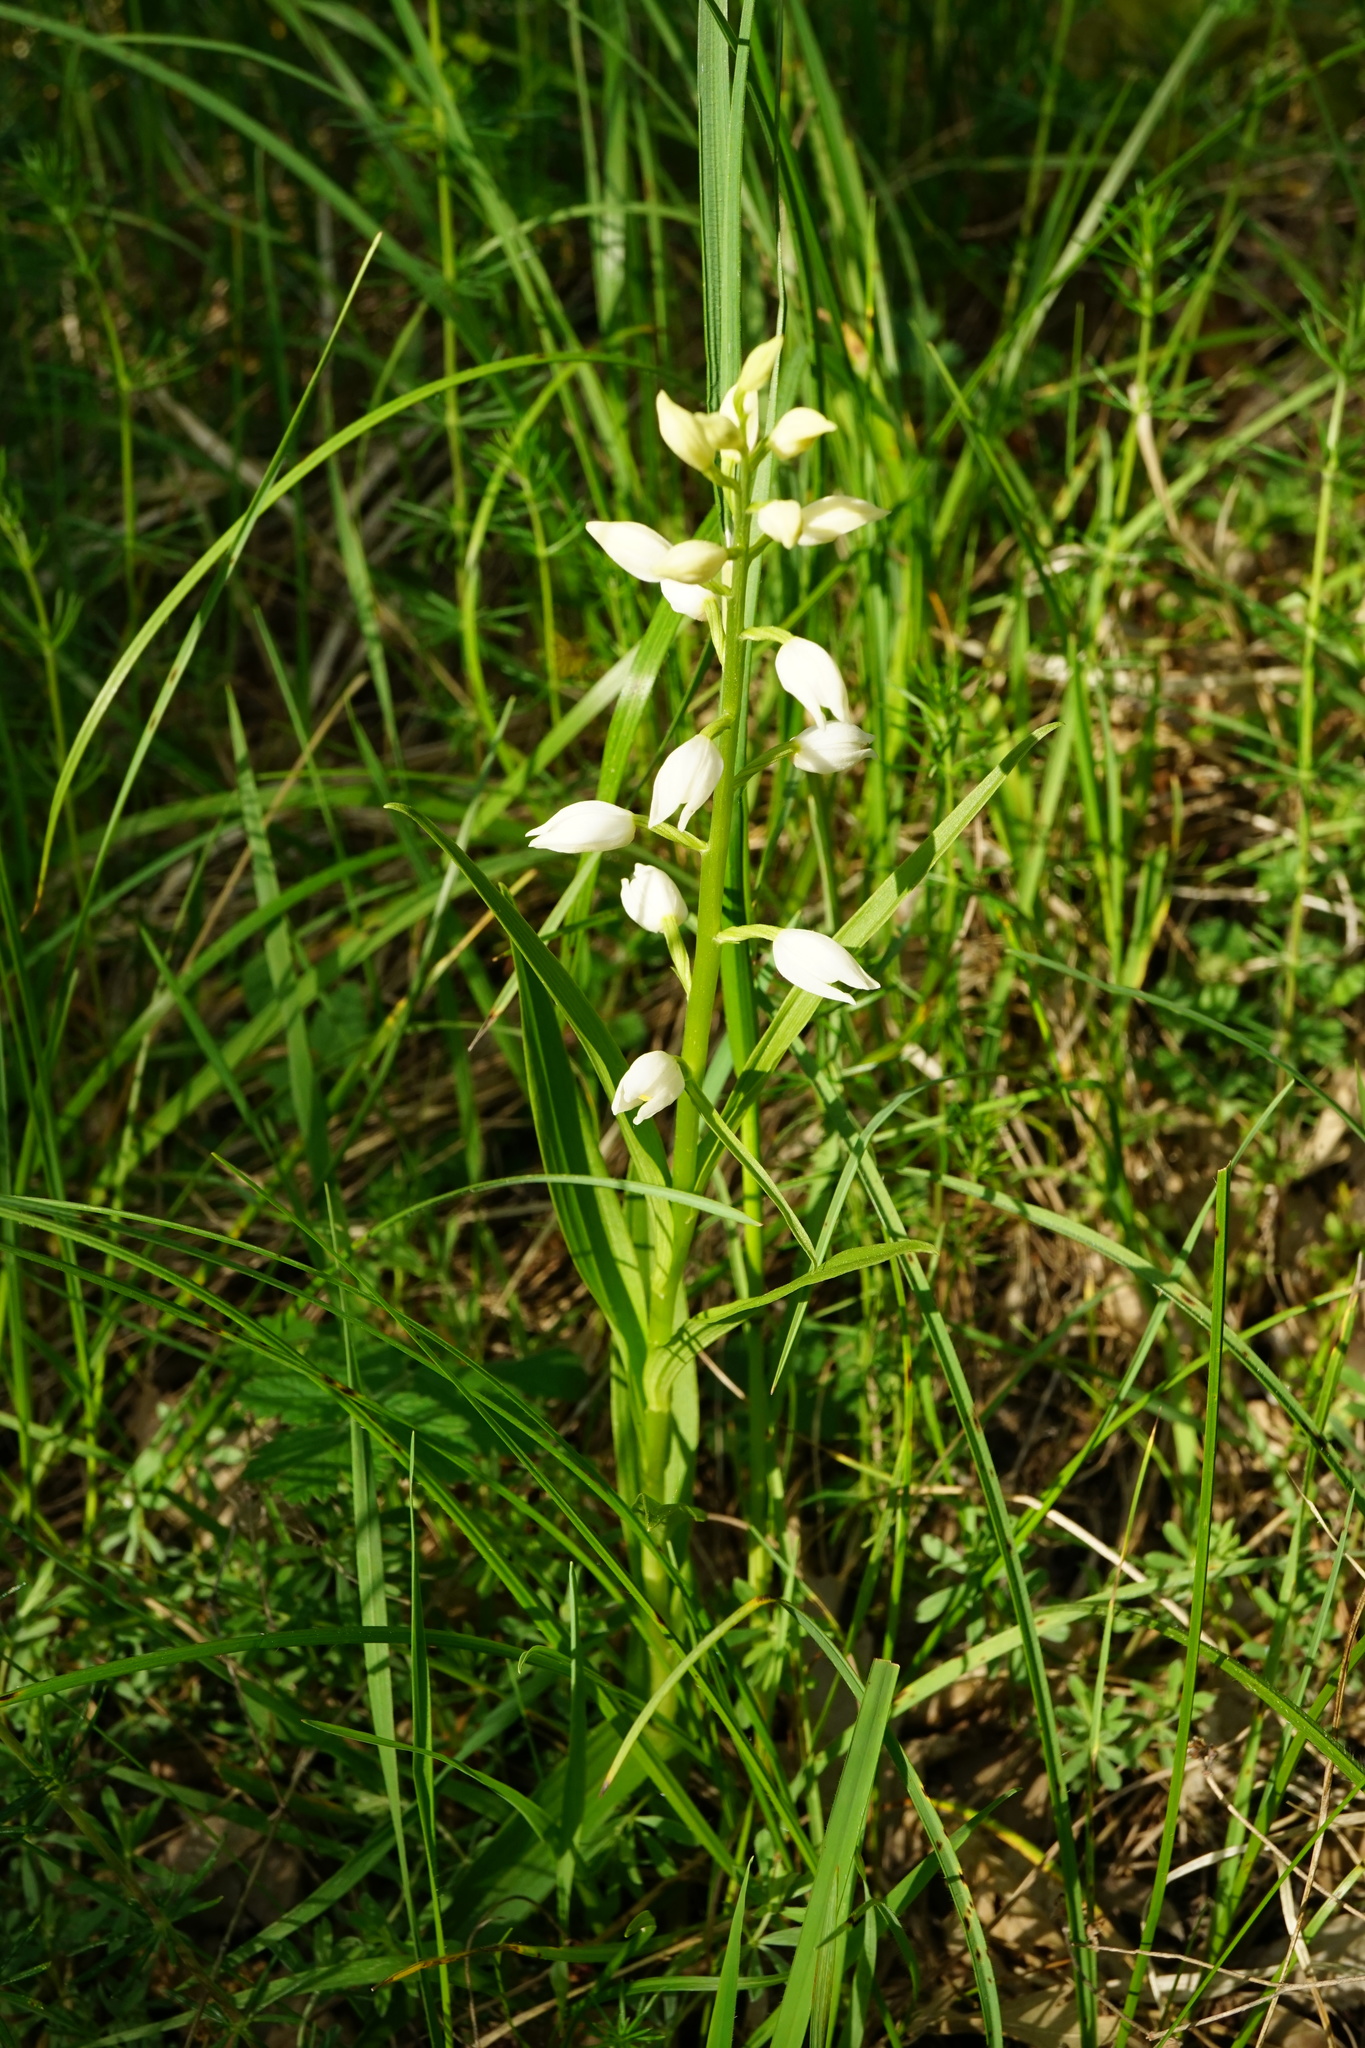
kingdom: Plantae
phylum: Tracheophyta
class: Liliopsida
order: Asparagales
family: Orchidaceae
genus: Cephalanthera
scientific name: Cephalanthera longifolia
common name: Narrow-leaved helleborine
